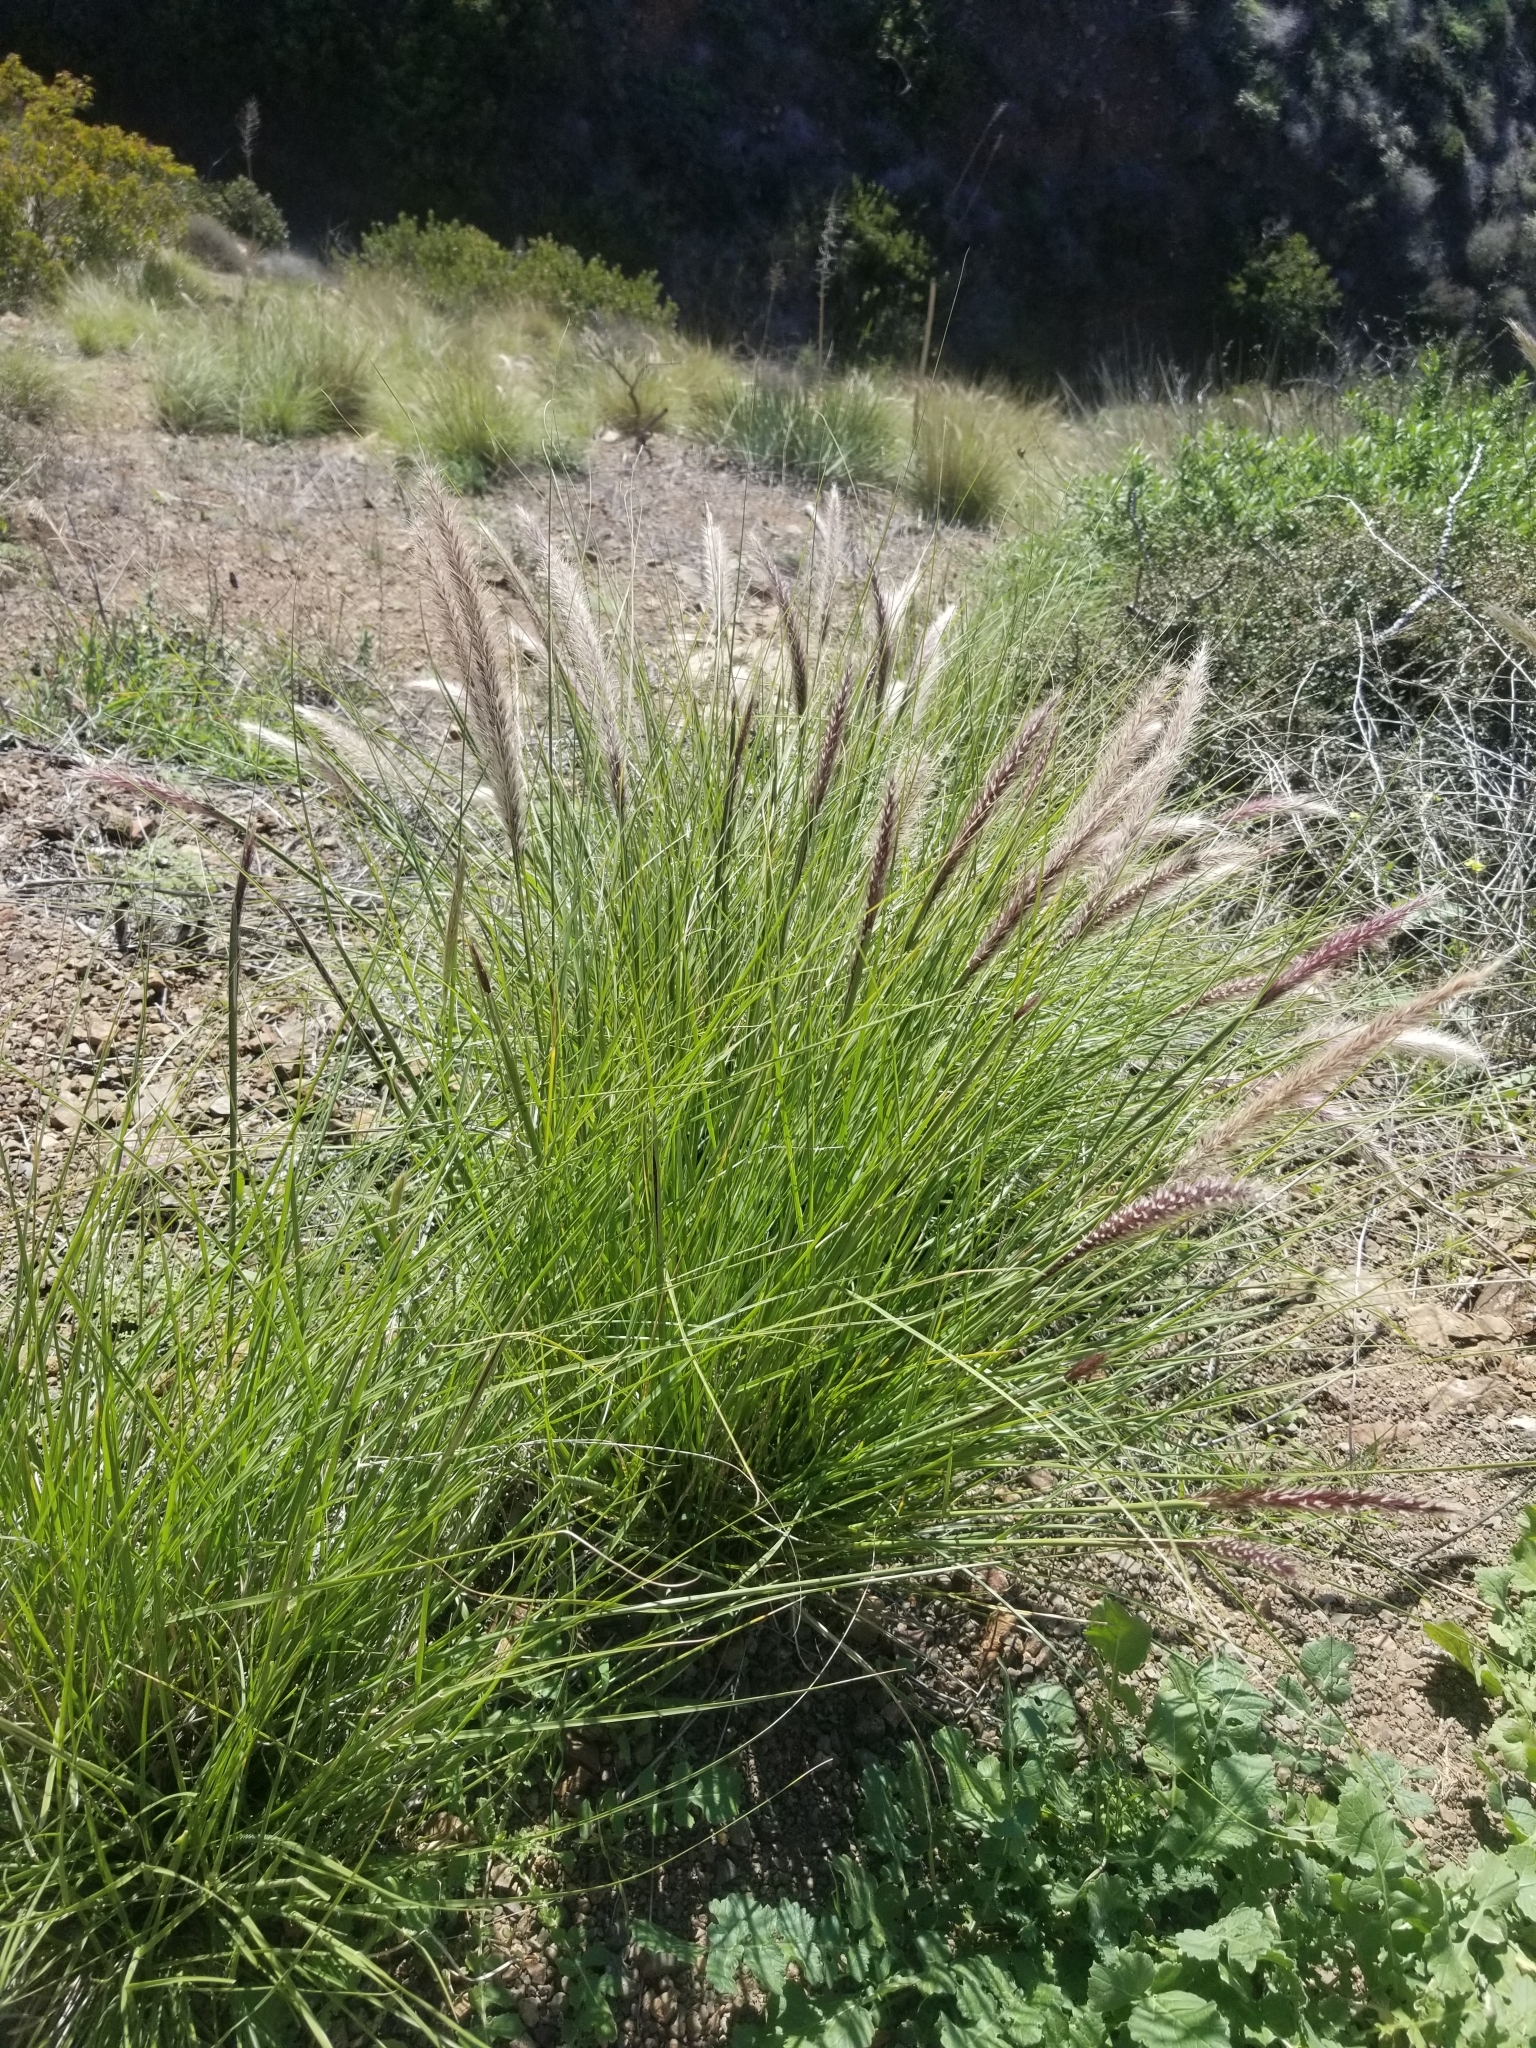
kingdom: Plantae
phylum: Tracheophyta
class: Liliopsida
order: Poales
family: Poaceae
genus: Cenchrus
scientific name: Cenchrus setaceus
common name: Crimson fountaingrass
